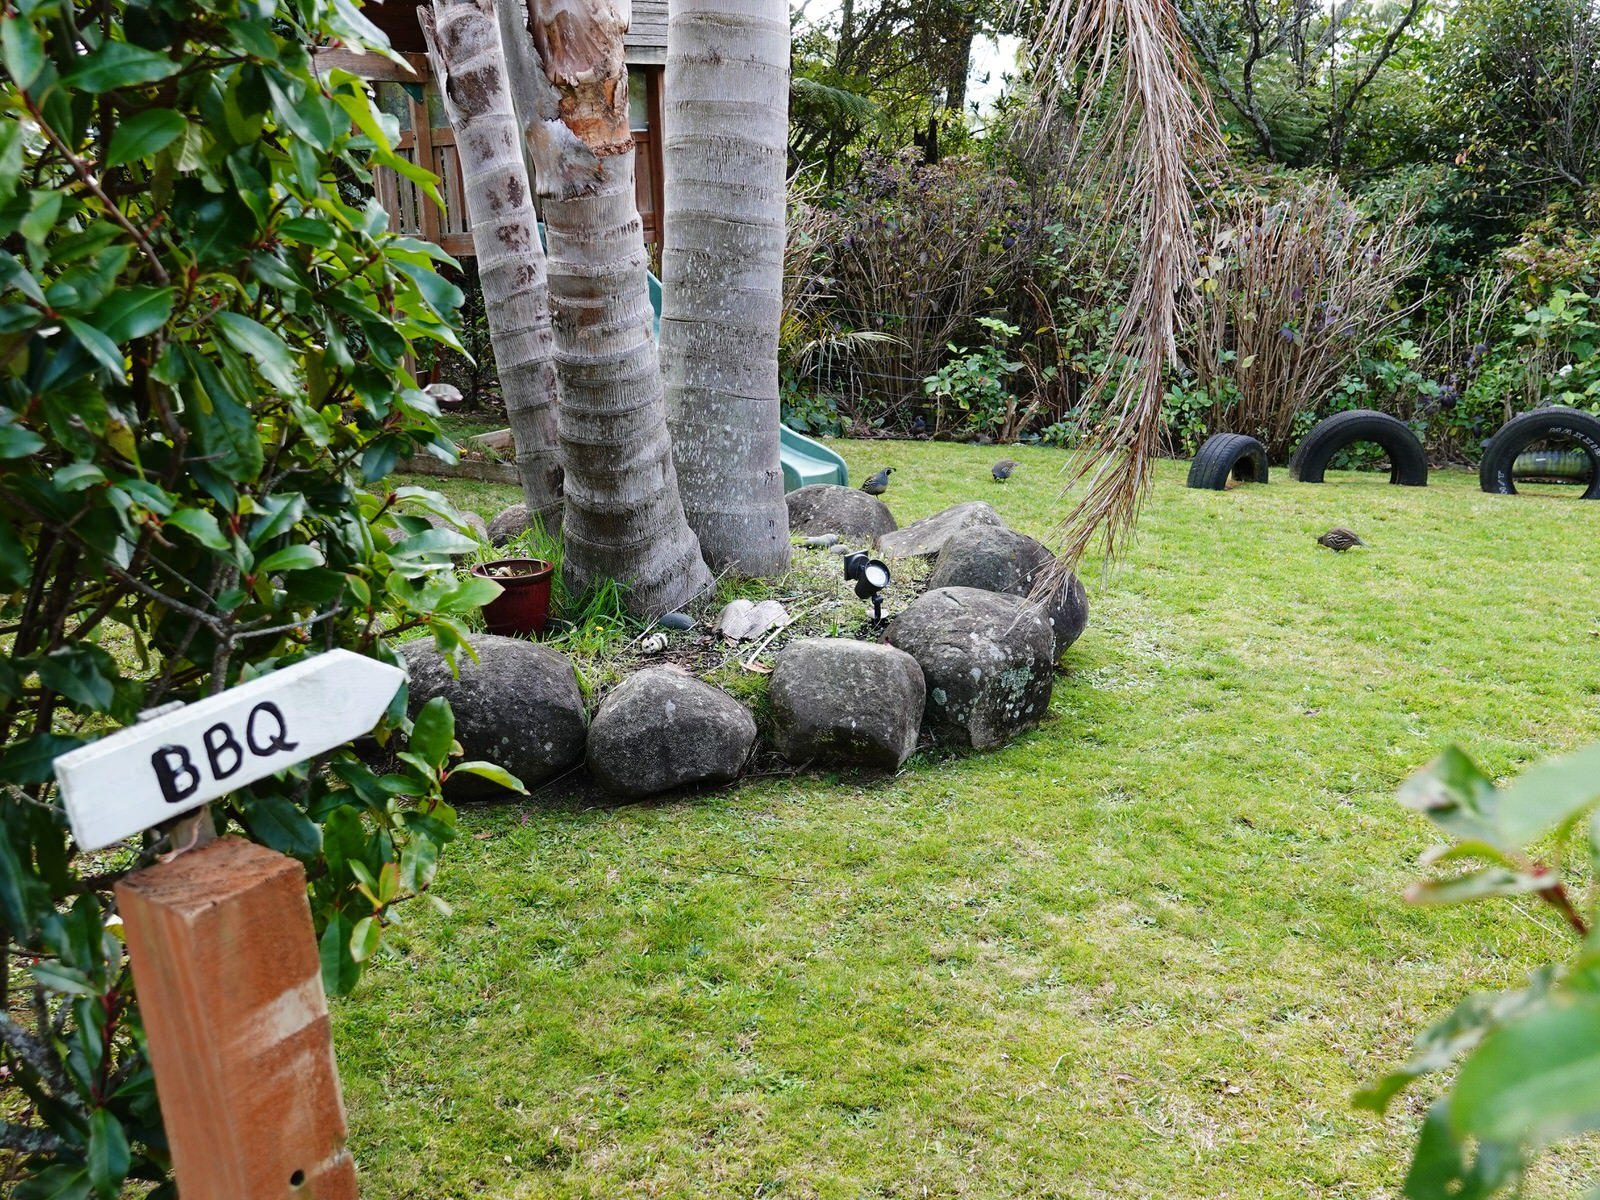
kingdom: Animalia
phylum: Chordata
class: Aves
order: Galliformes
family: Odontophoridae
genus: Callipepla
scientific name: Callipepla californica
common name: California quail
